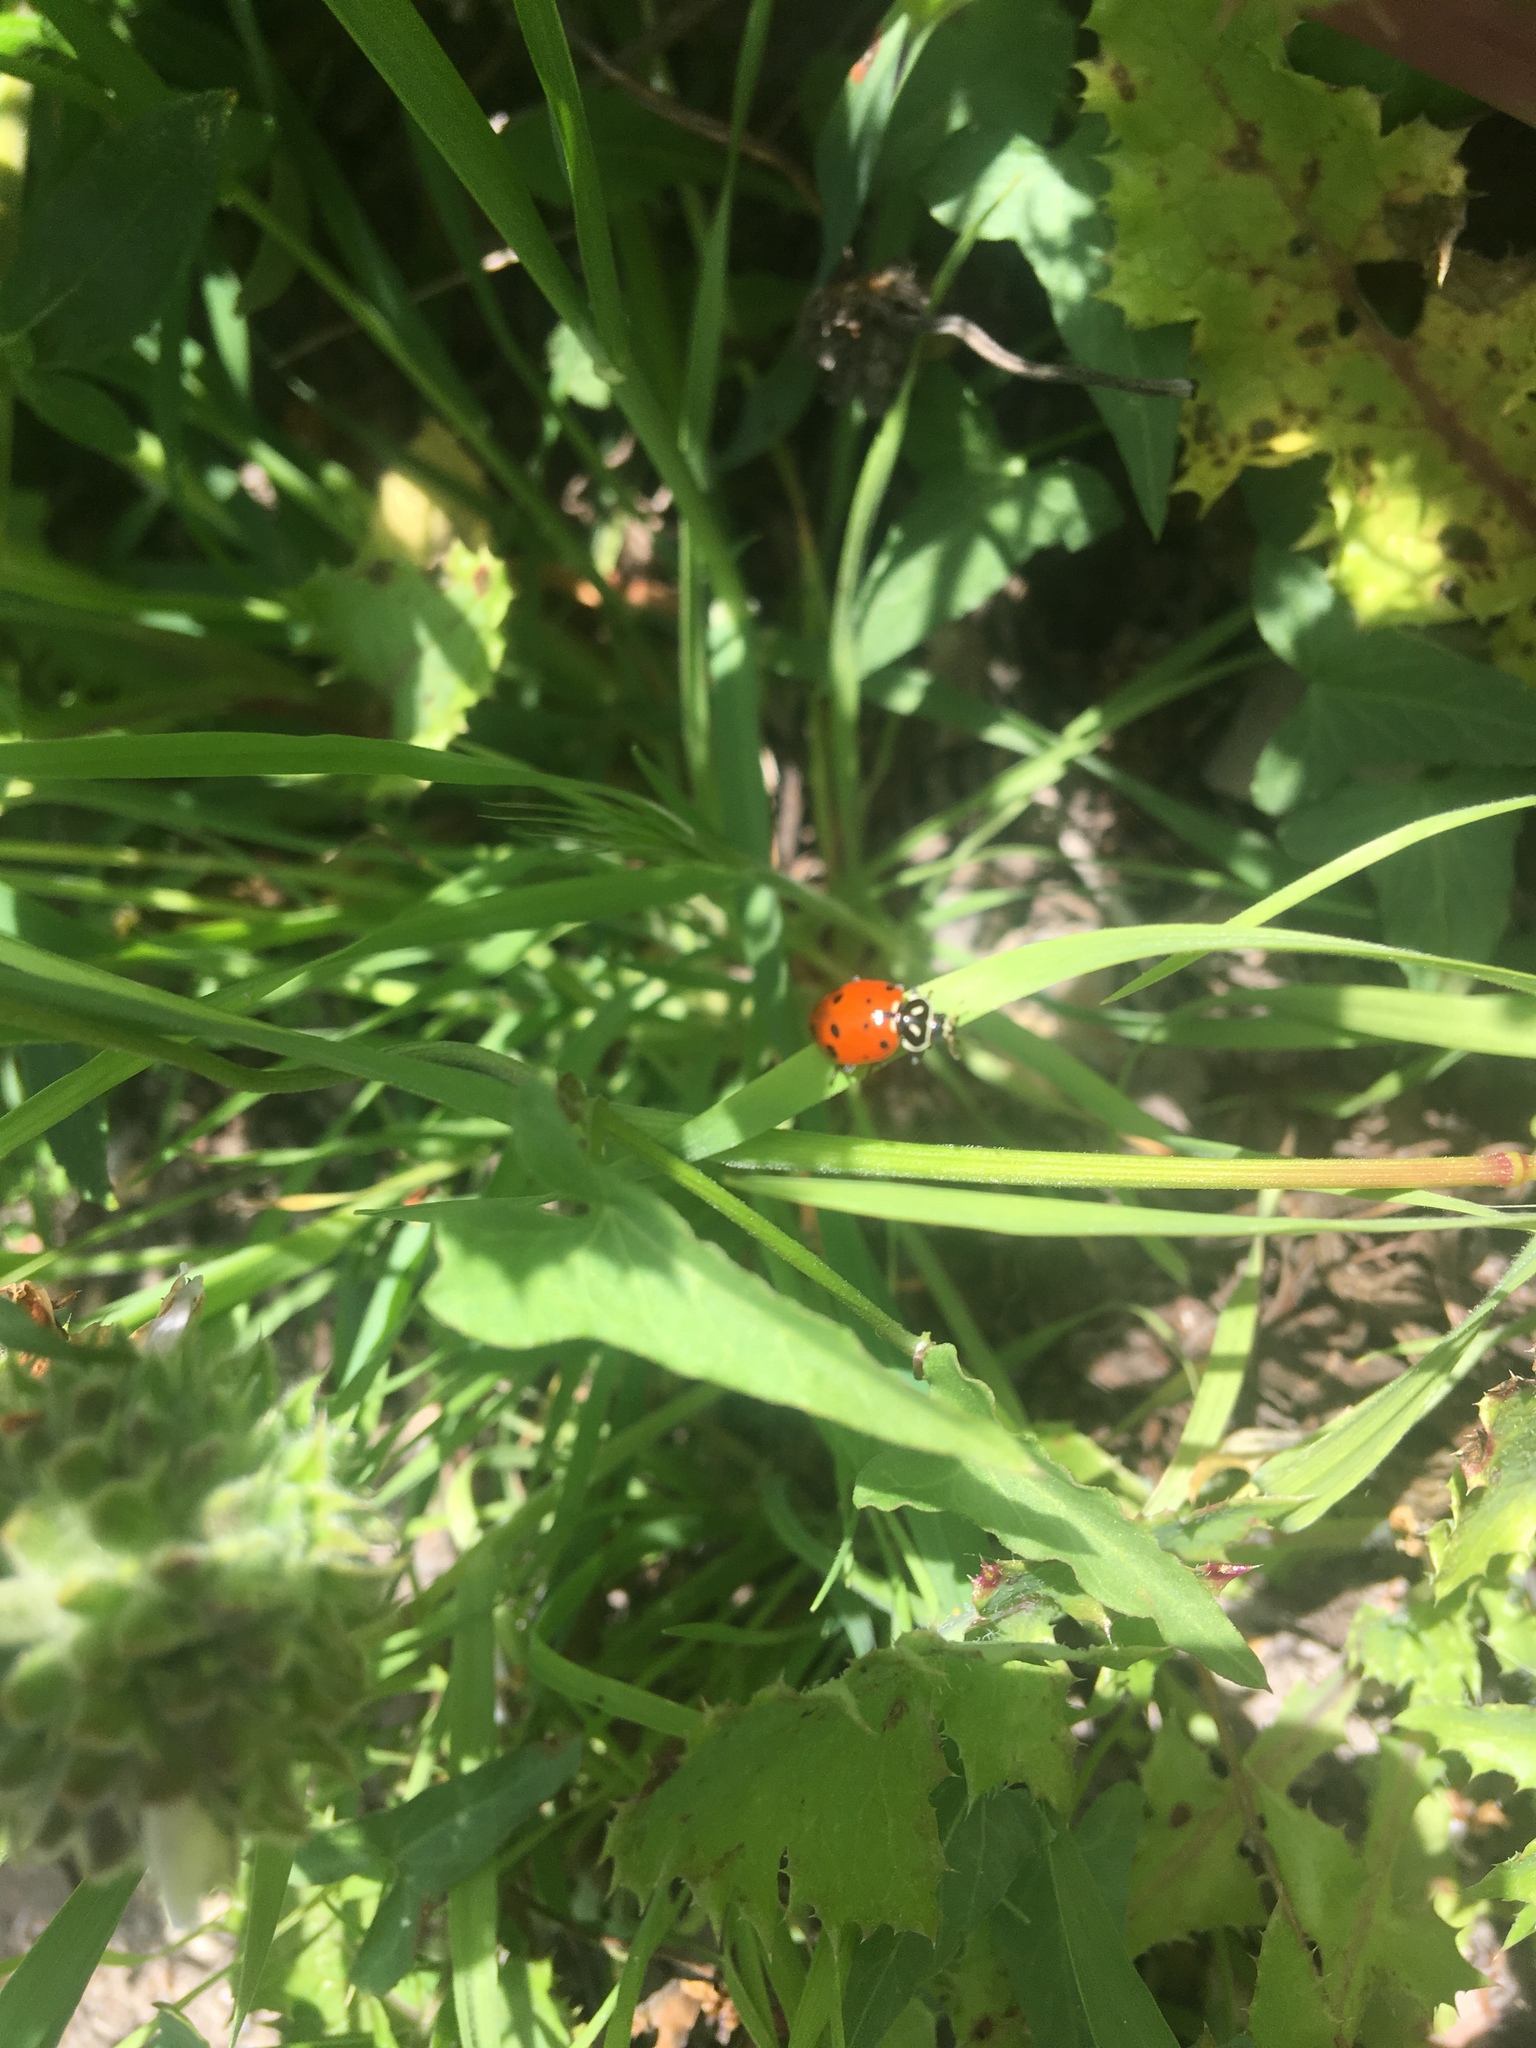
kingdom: Animalia
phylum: Arthropoda
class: Insecta
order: Coleoptera
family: Coccinellidae
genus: Hippodamia
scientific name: Hippodamia convergens
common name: Convergent lady beetle
